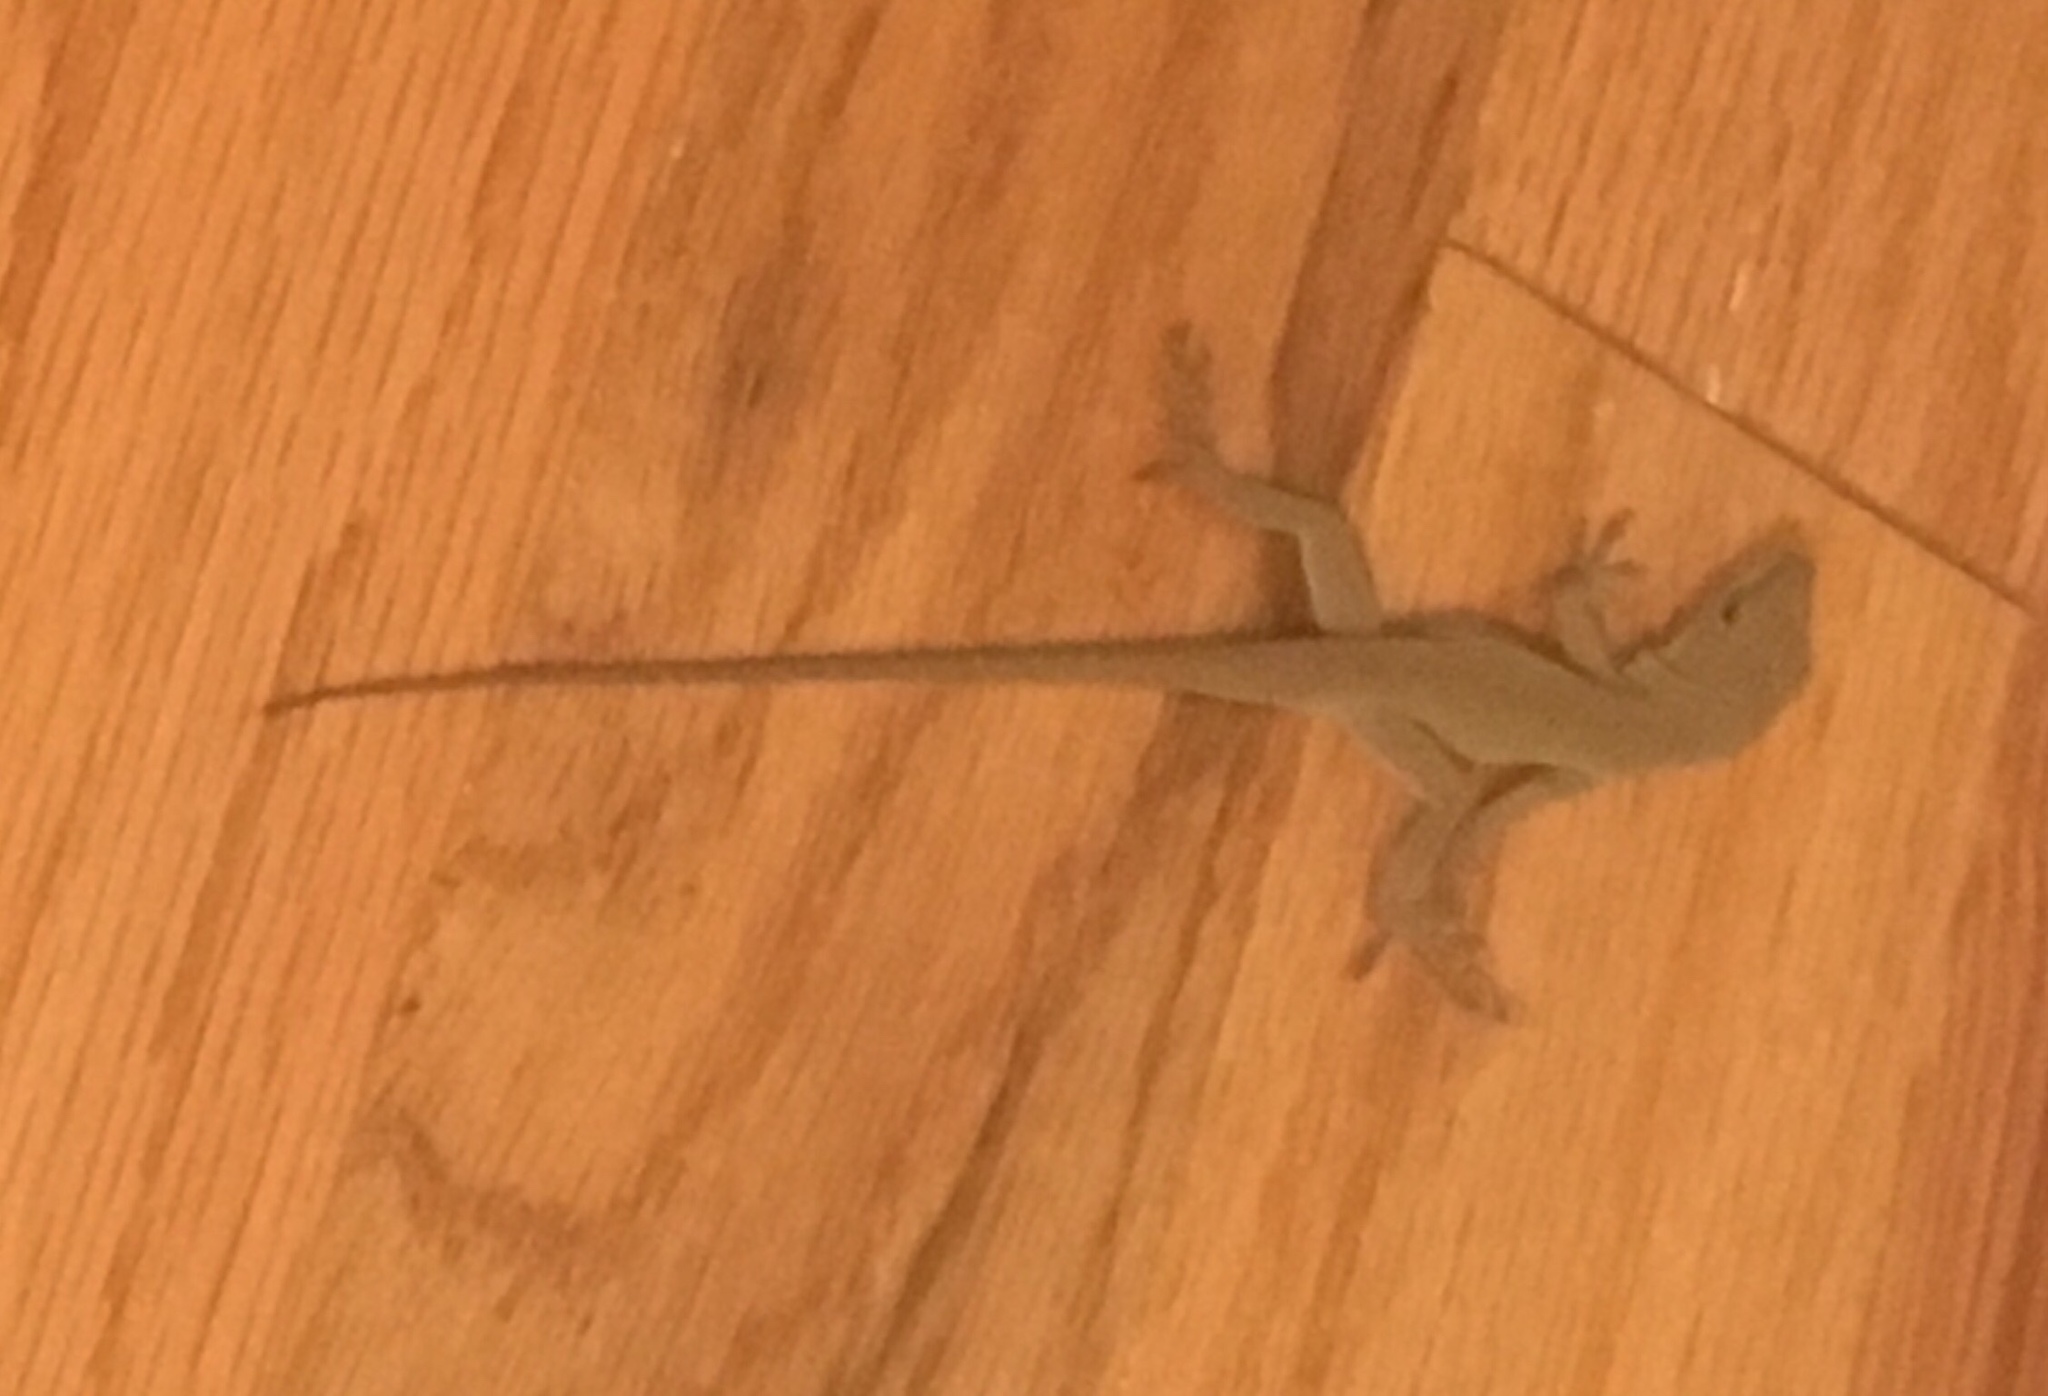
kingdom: Animalia
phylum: Chordata
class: Squamata
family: Dactyloidae
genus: Anolis
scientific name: Anolis carolinensis
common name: Green anole
